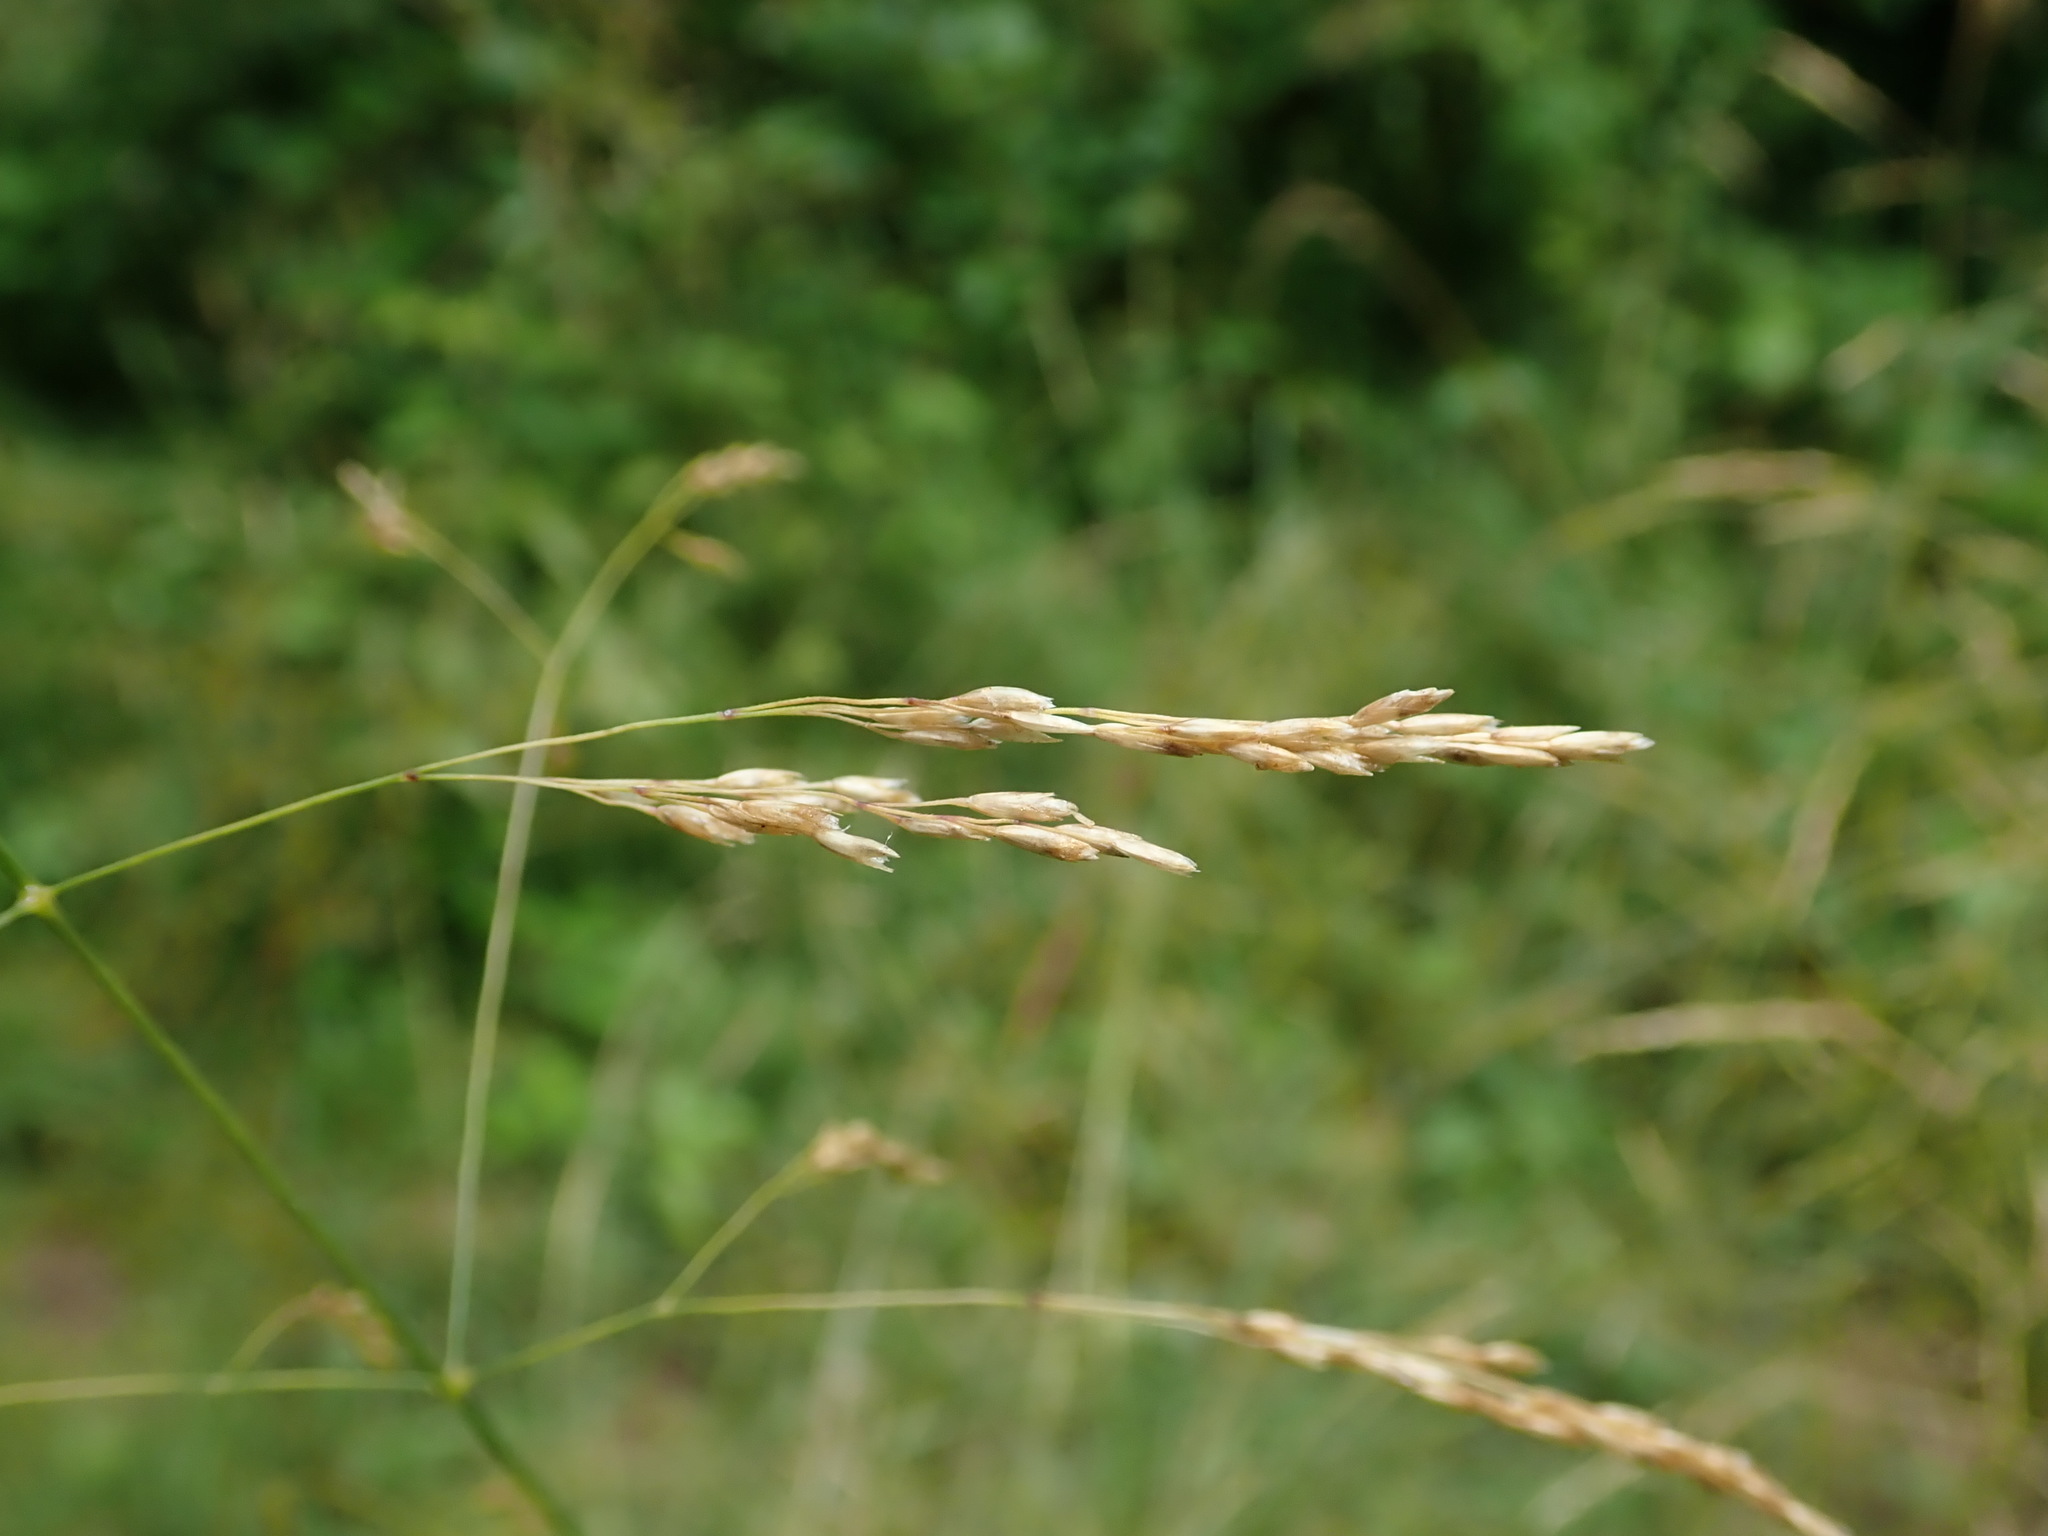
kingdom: Plantae
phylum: Tracheophyta
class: Liliopsida
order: Poales
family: Poaceae
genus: Deschampsia
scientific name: Deschampsia cespitosa
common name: Tufted hair-grass
